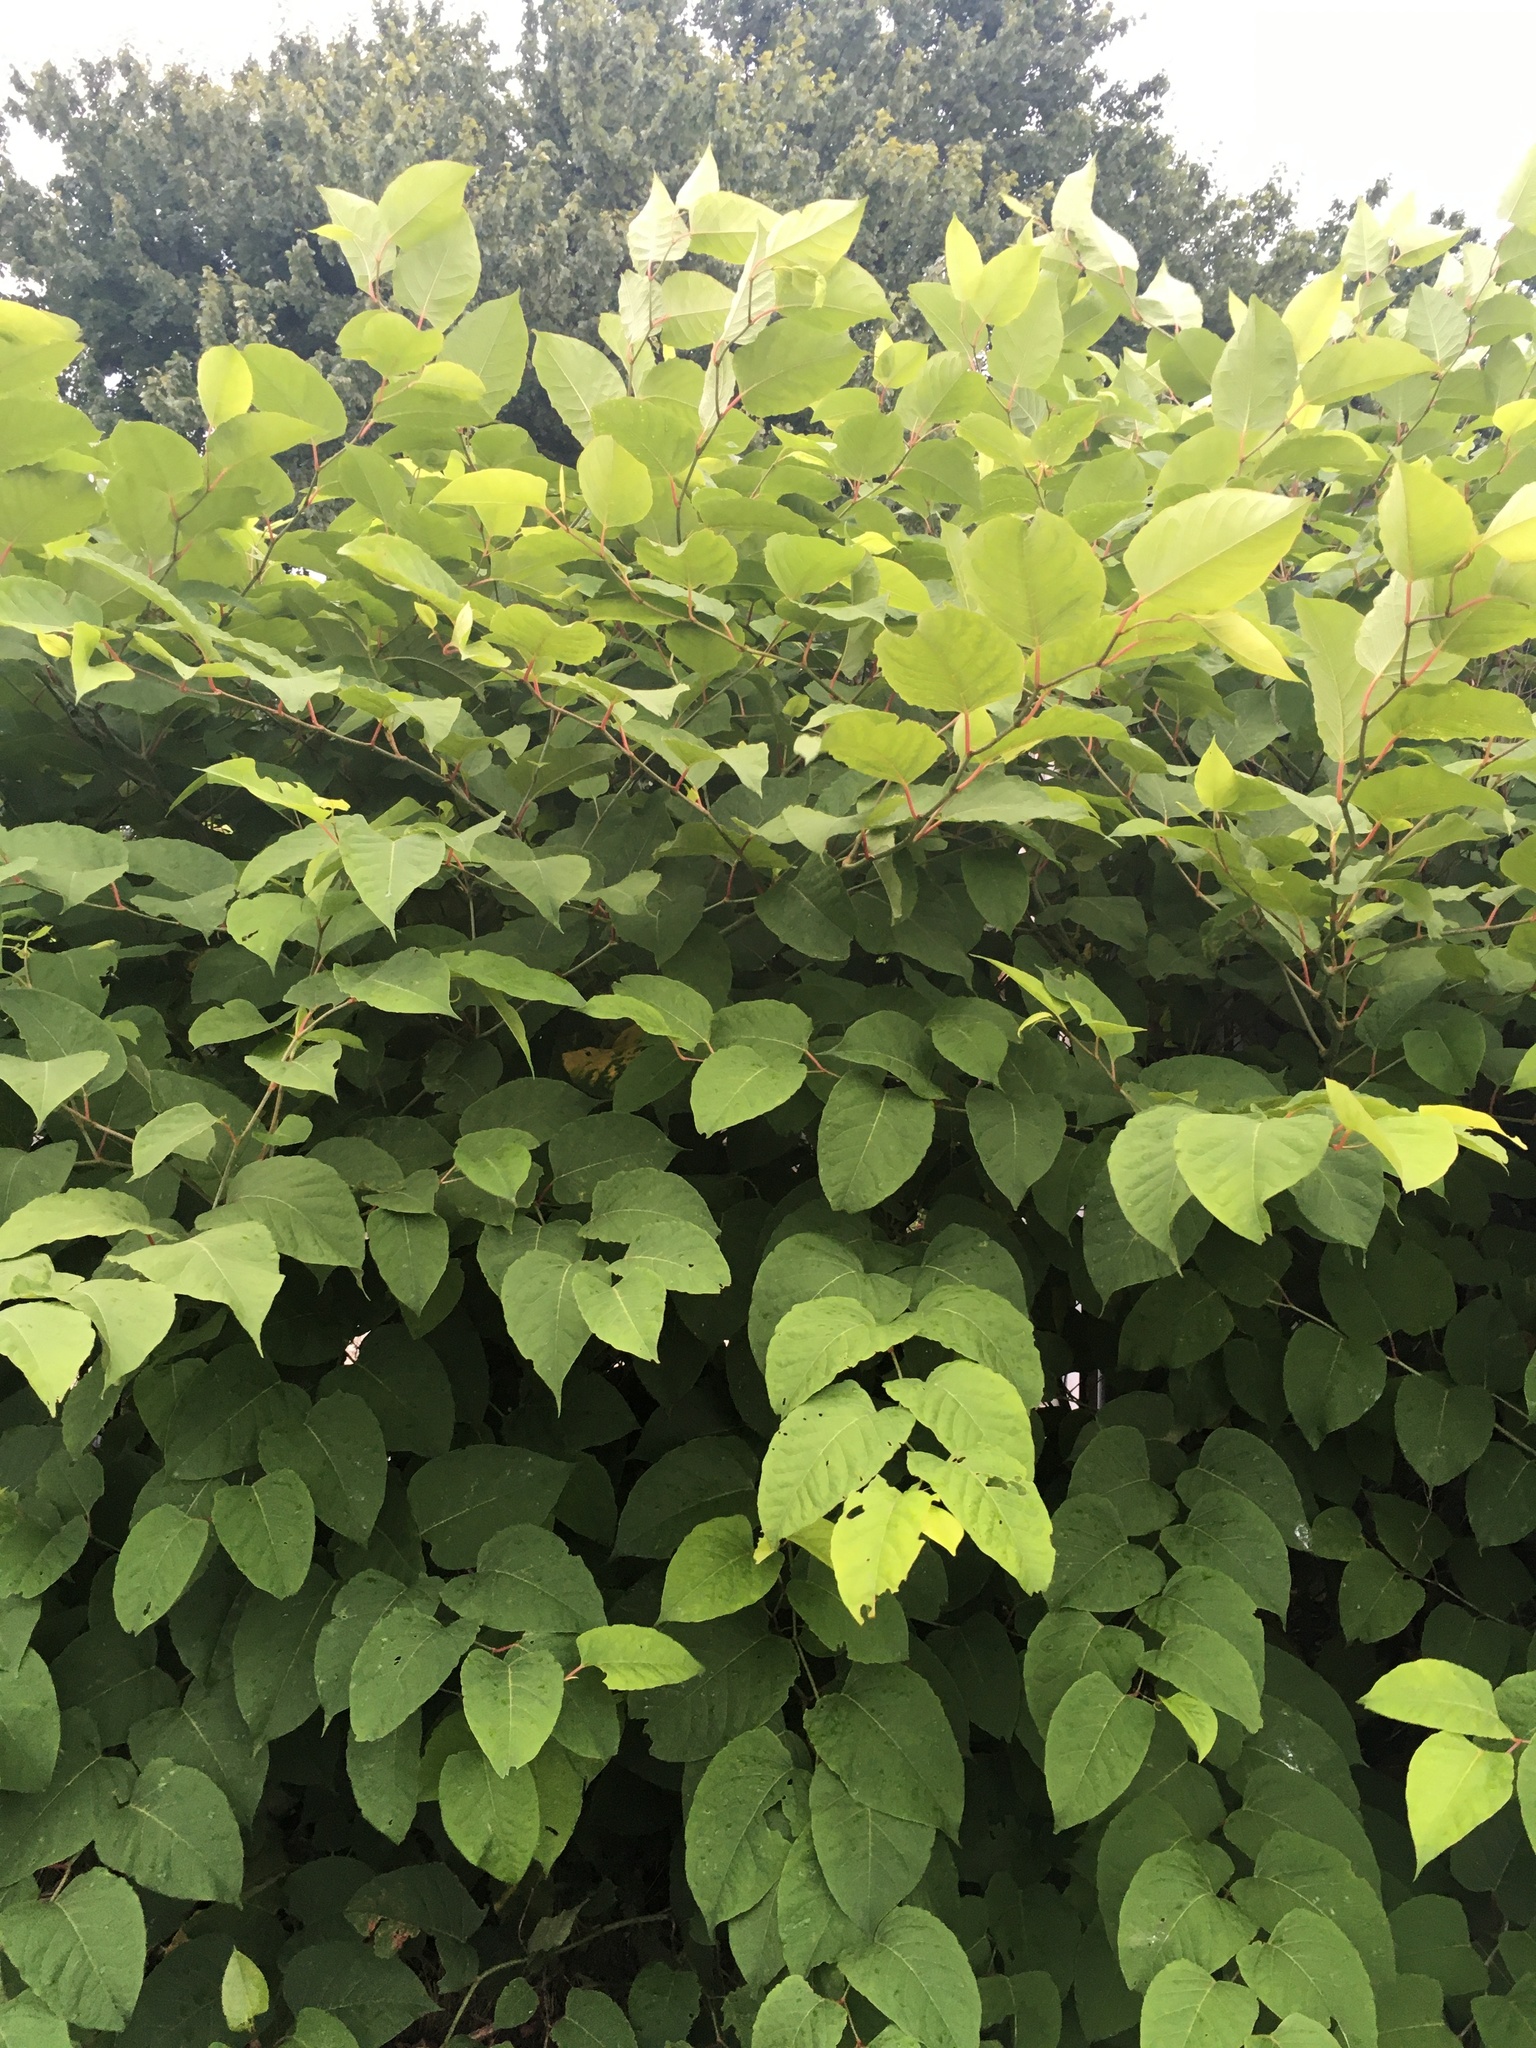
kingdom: Plantae
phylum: Tracheophyta
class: Magnoliopsida
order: Caryophyllales
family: Polygonaceae
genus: Reynoutria
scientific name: Reynoutria japonica
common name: Japanese knotweed
